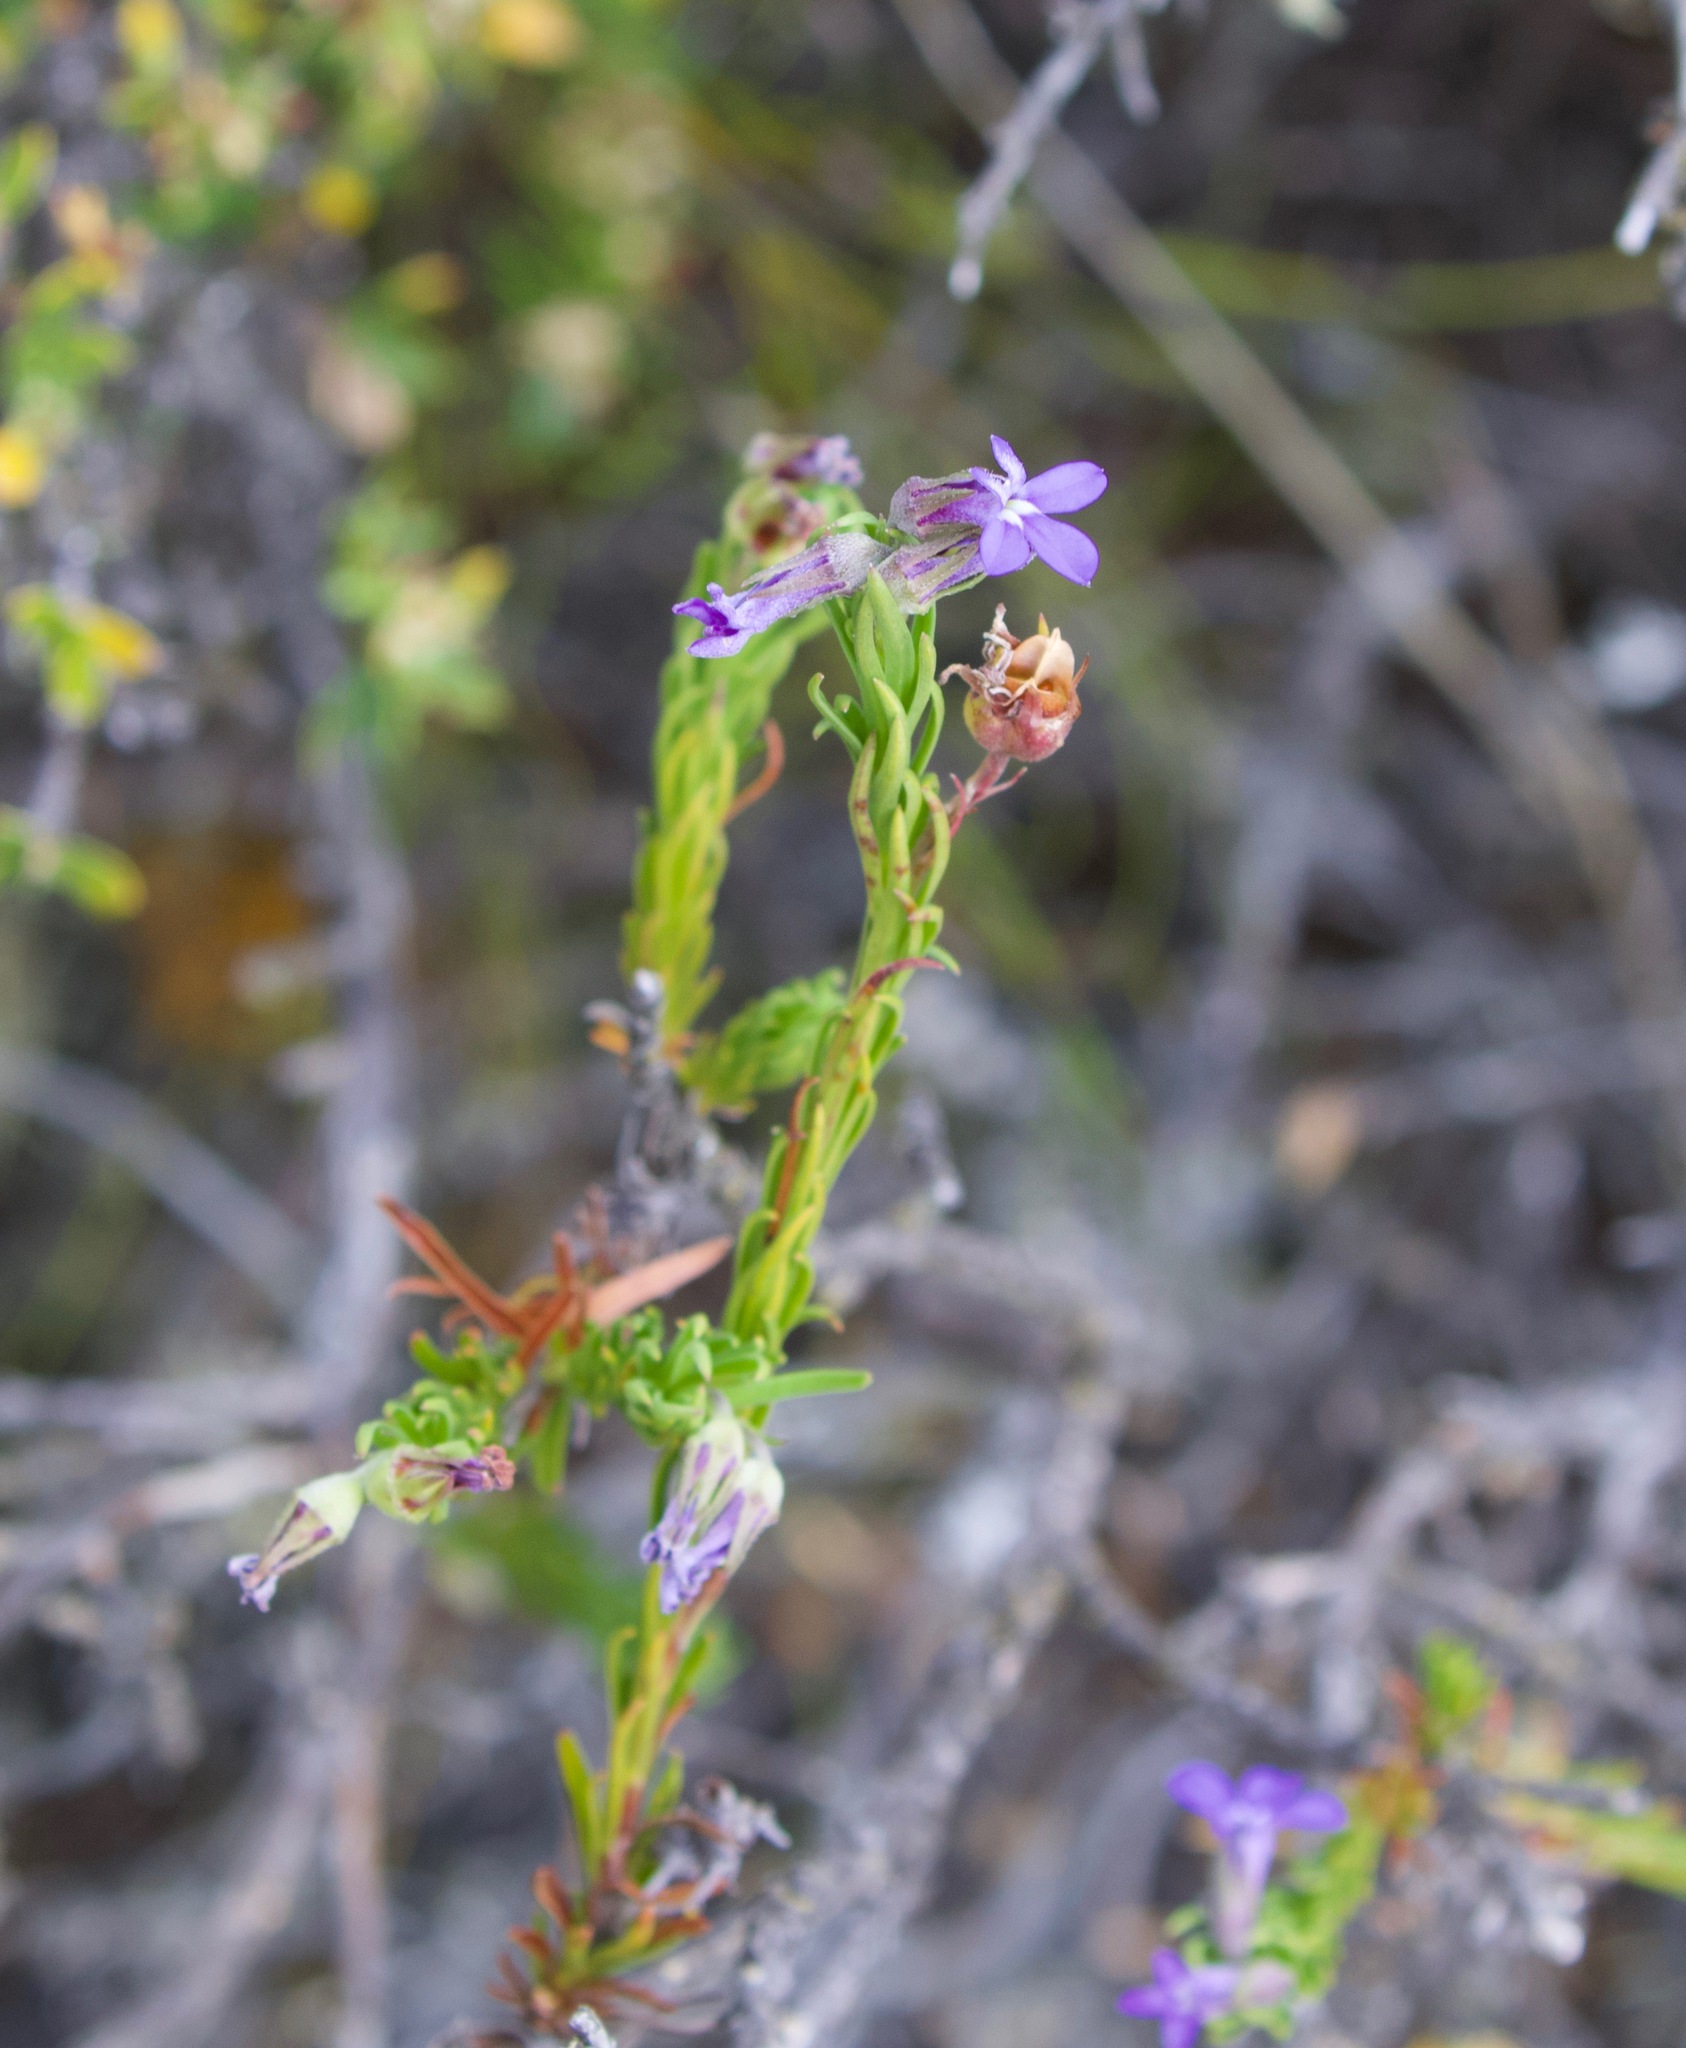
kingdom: Plantae
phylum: Tracheophyta
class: Magnoliopsida
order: Asterales
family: Campanulaceae
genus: Lobelia
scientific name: Lobelia pinifolia
